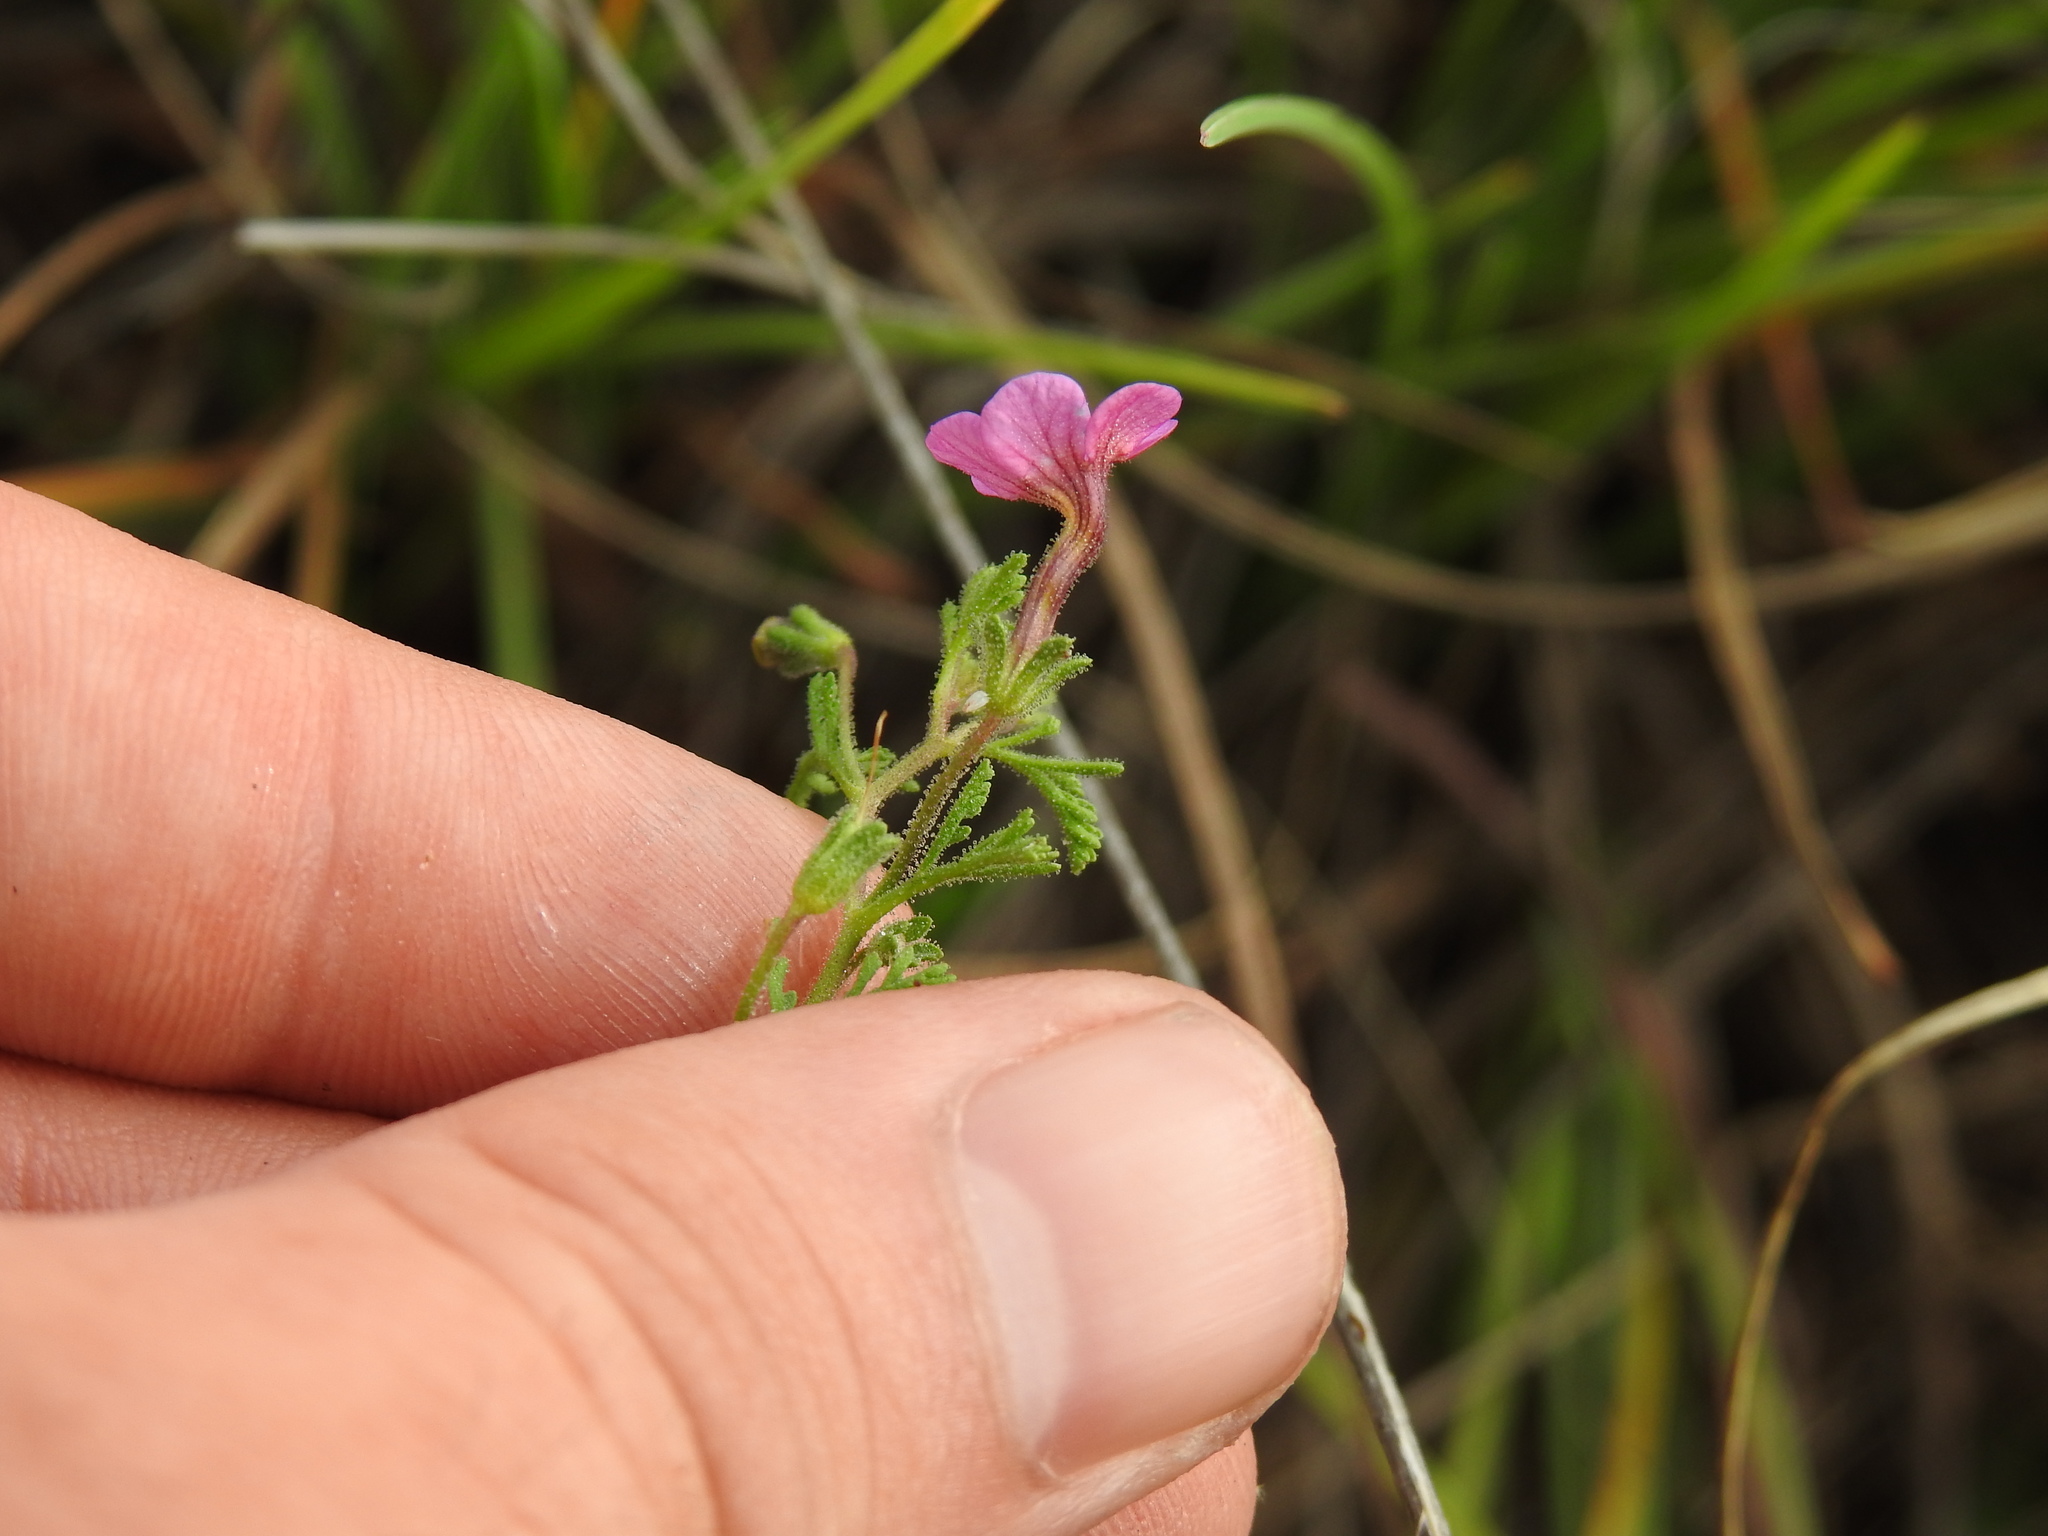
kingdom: Plantae
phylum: Tracheophyta
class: Magnoliopsida
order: Lamiales
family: Scrophulariaceae
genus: Jamesbrittenia
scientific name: Jamesbrittenia aurantiaca
